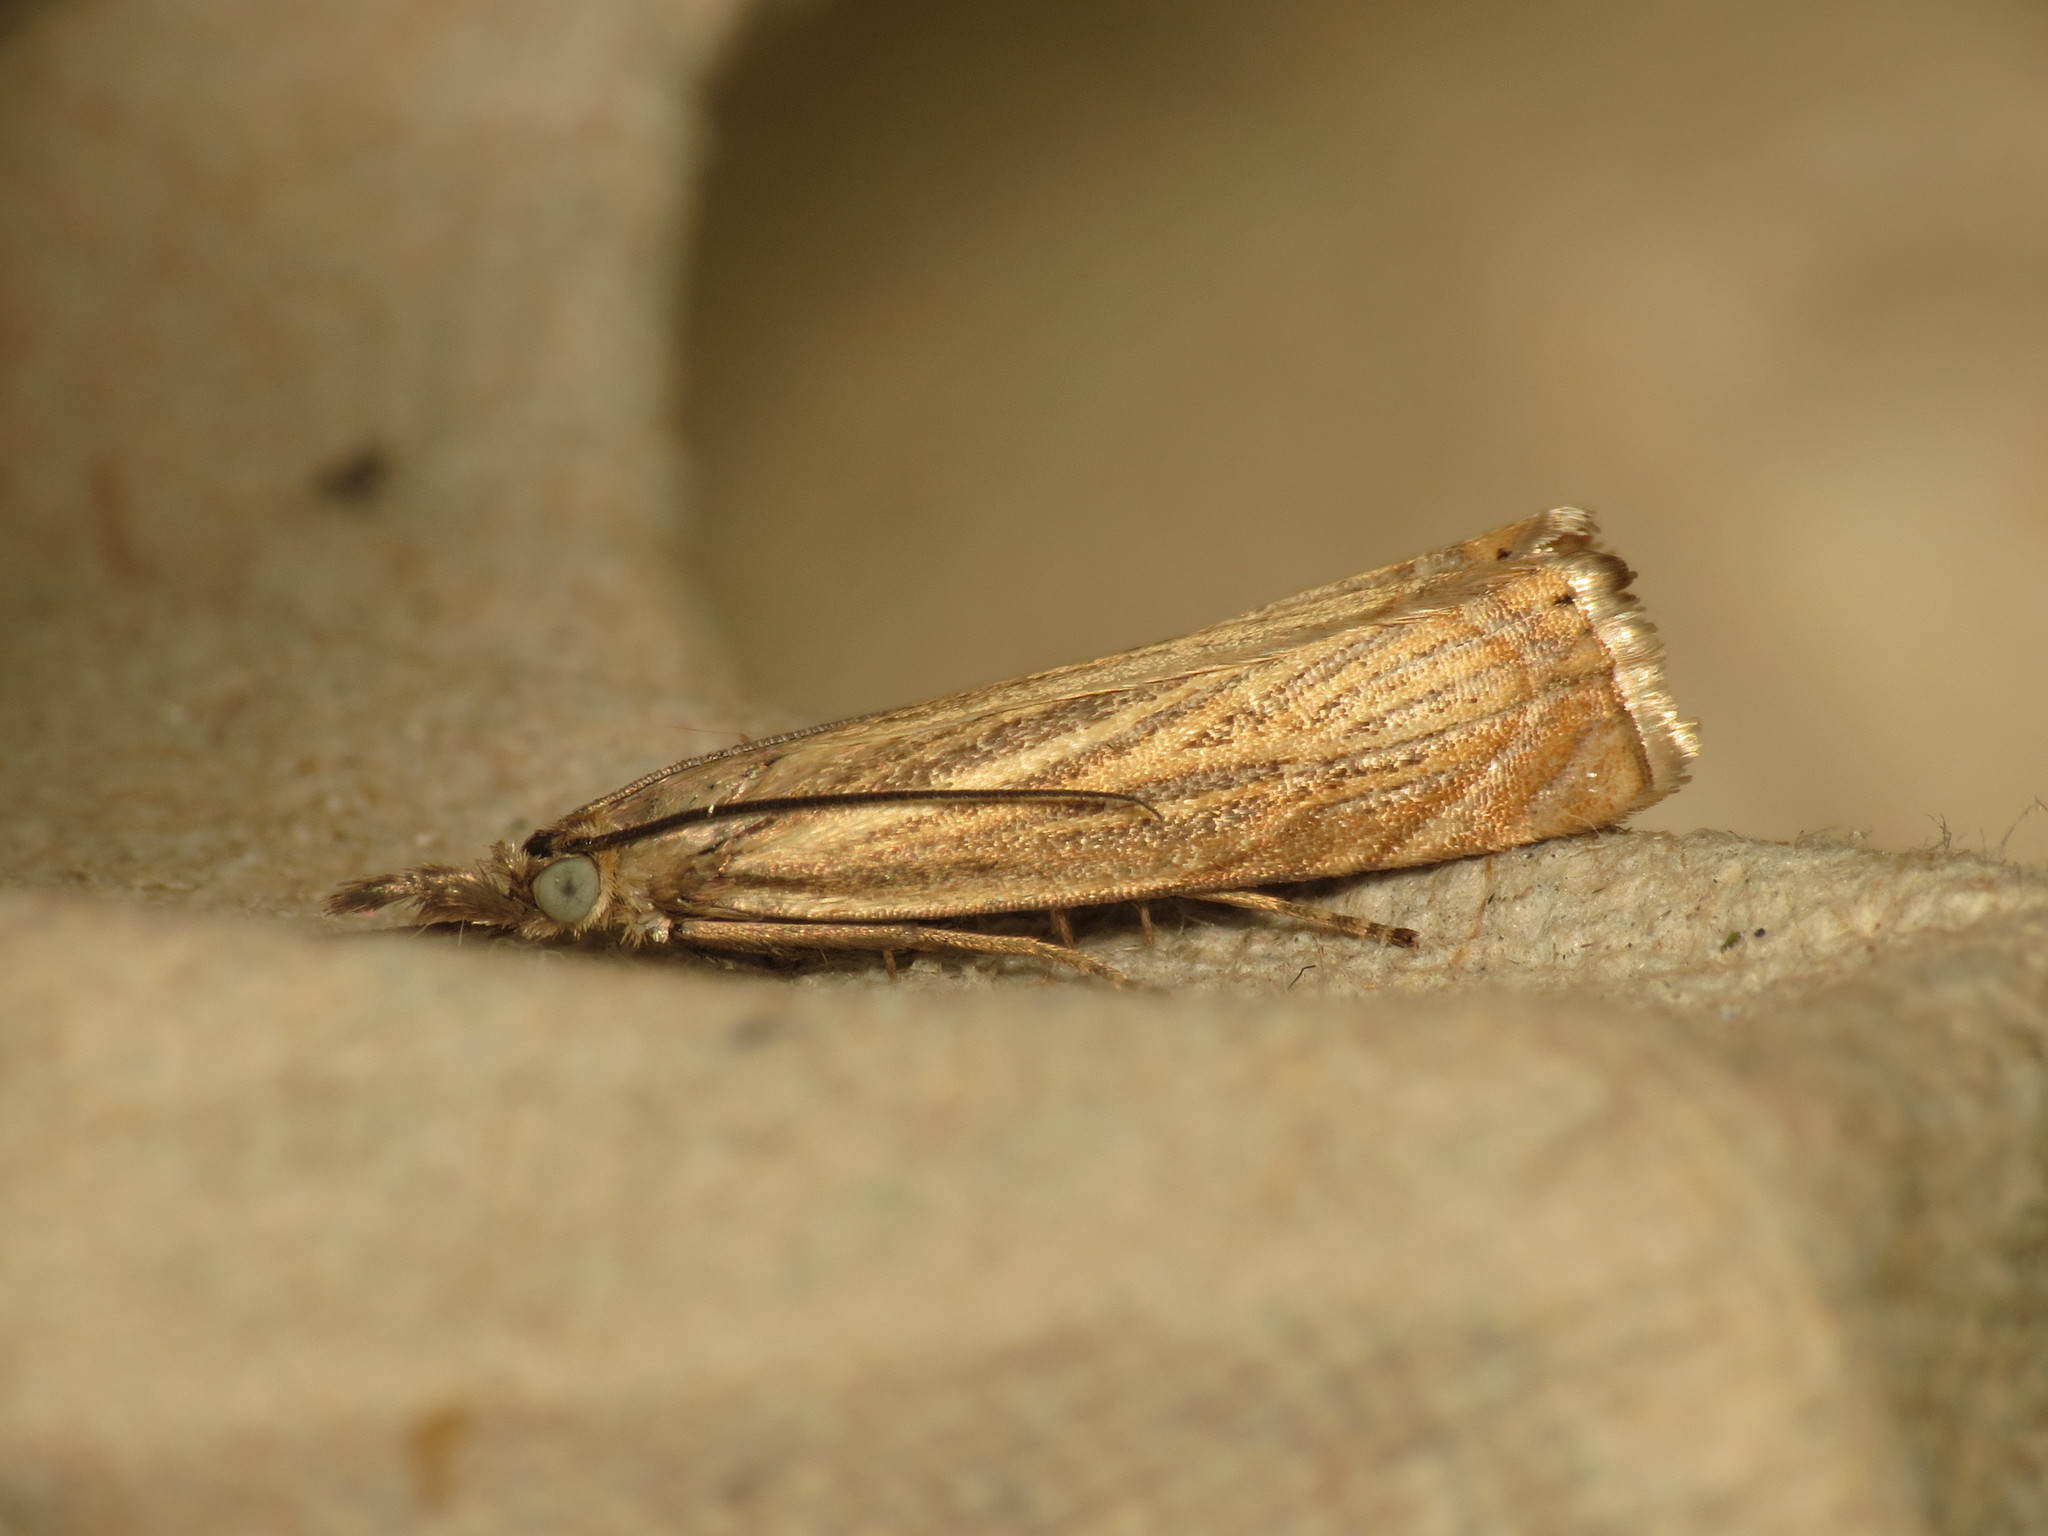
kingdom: Animalia
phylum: Arthropoda
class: Insecta
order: Lepidoptera
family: Crambidae
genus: Chrysoteuchia
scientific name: Chrysoteuchia culmella
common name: Garden grass-veneer
